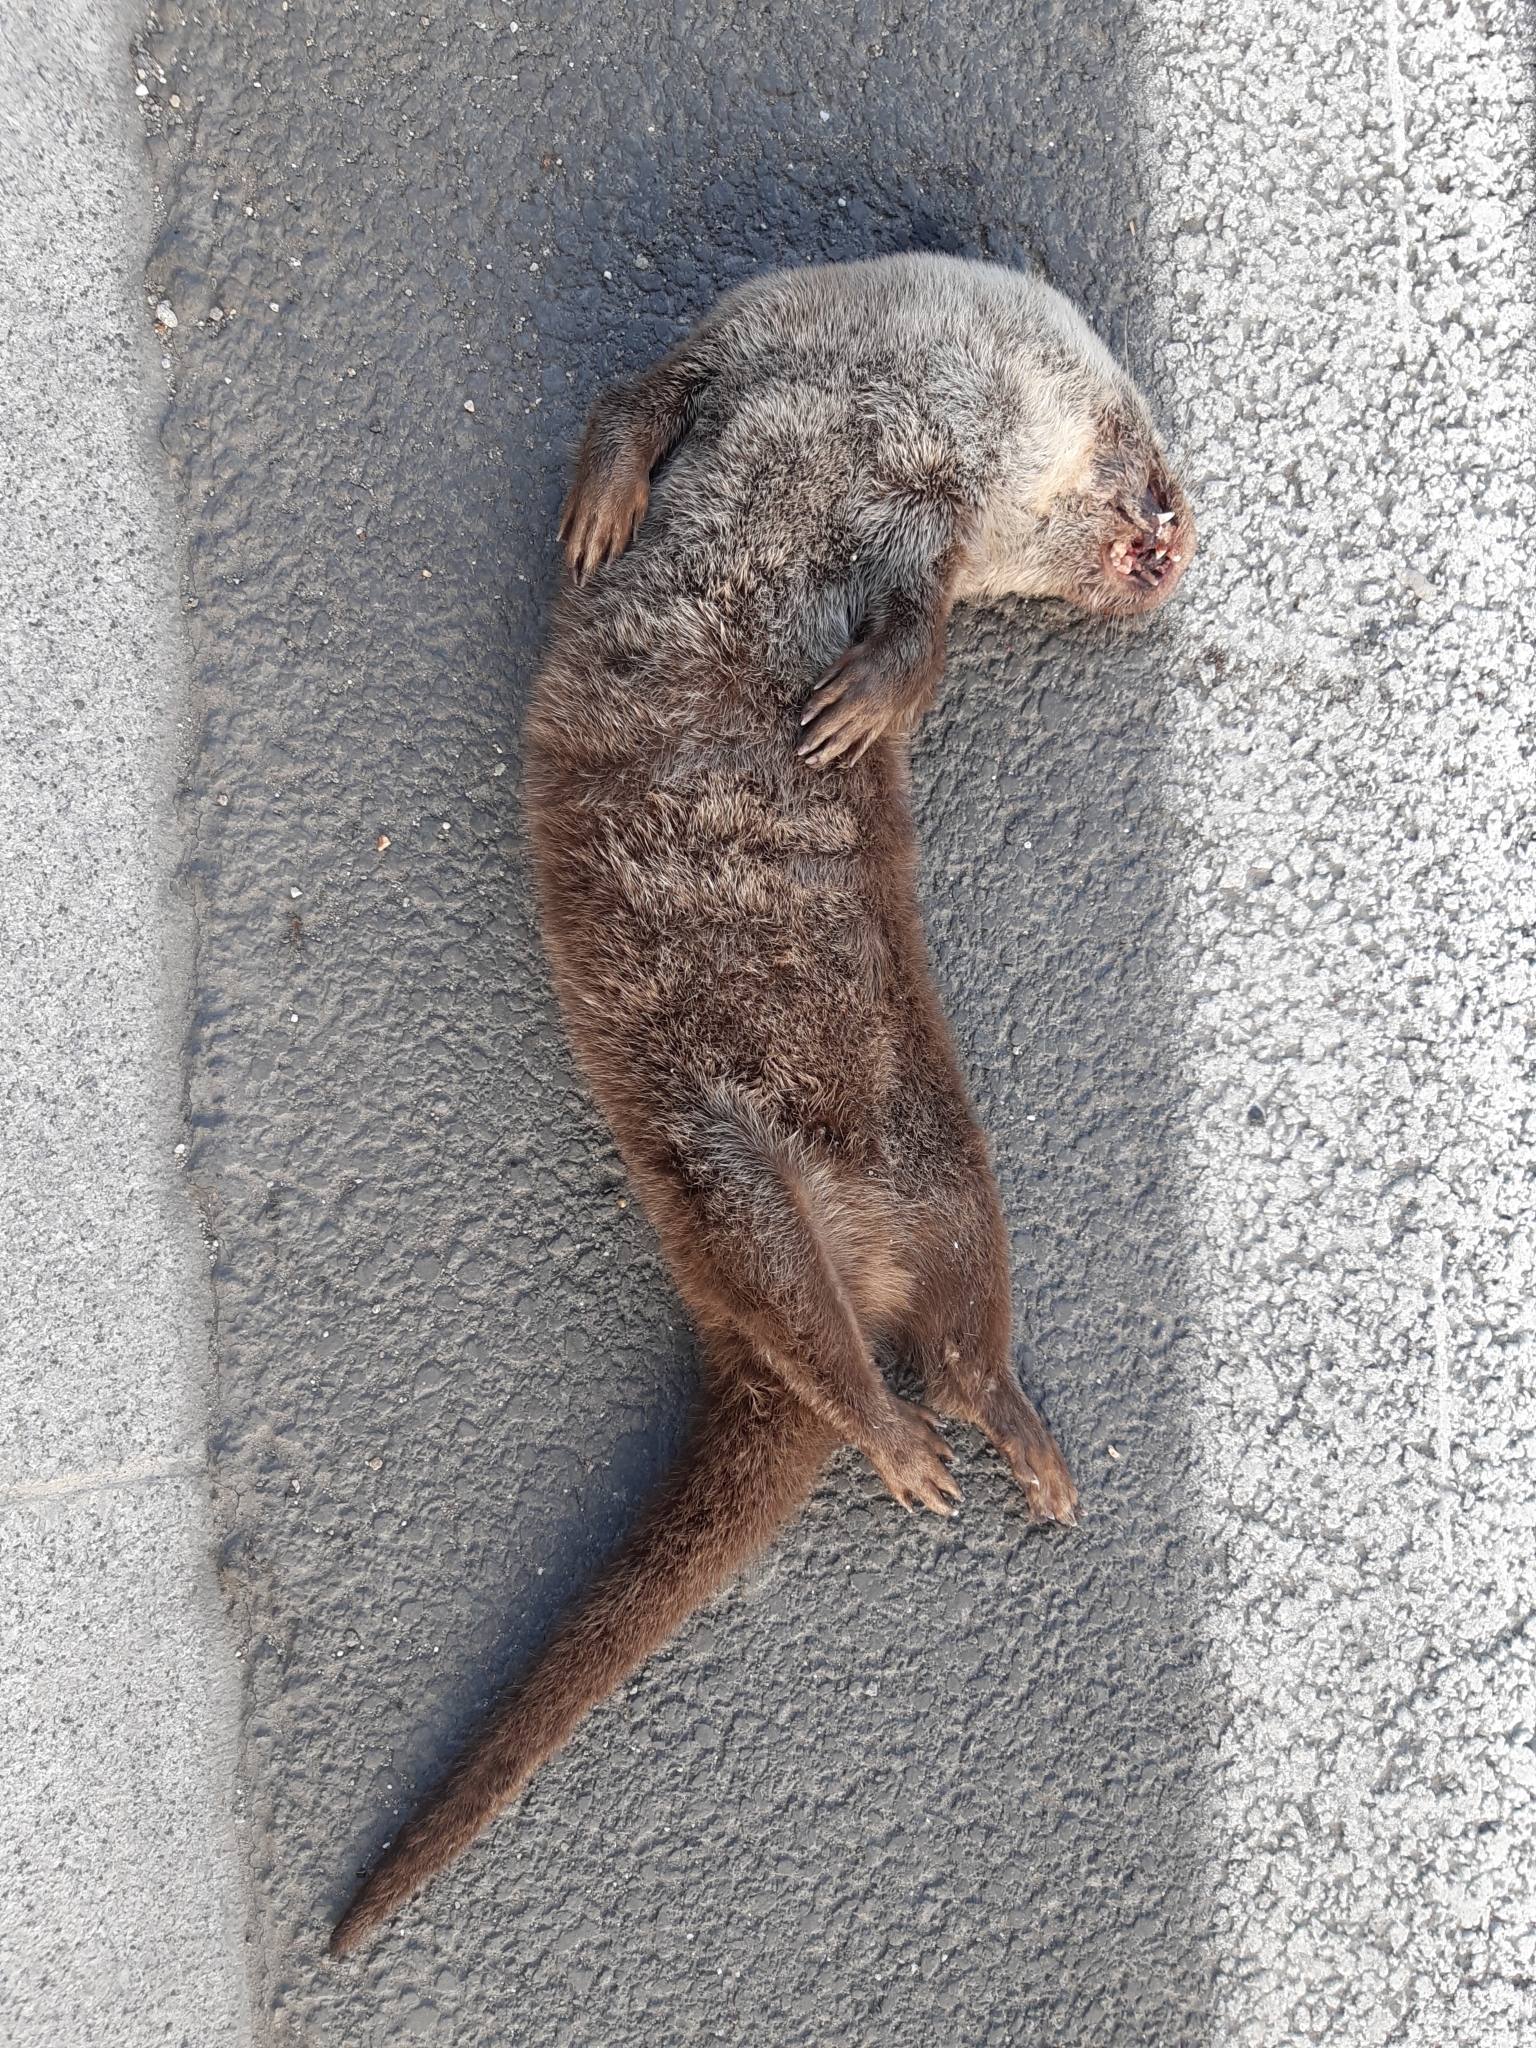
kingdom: Animalia
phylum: Chordata
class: Mammalia
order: Carnivora
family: Mustelidae
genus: Lutra
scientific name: Lutra lutra
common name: European otter
